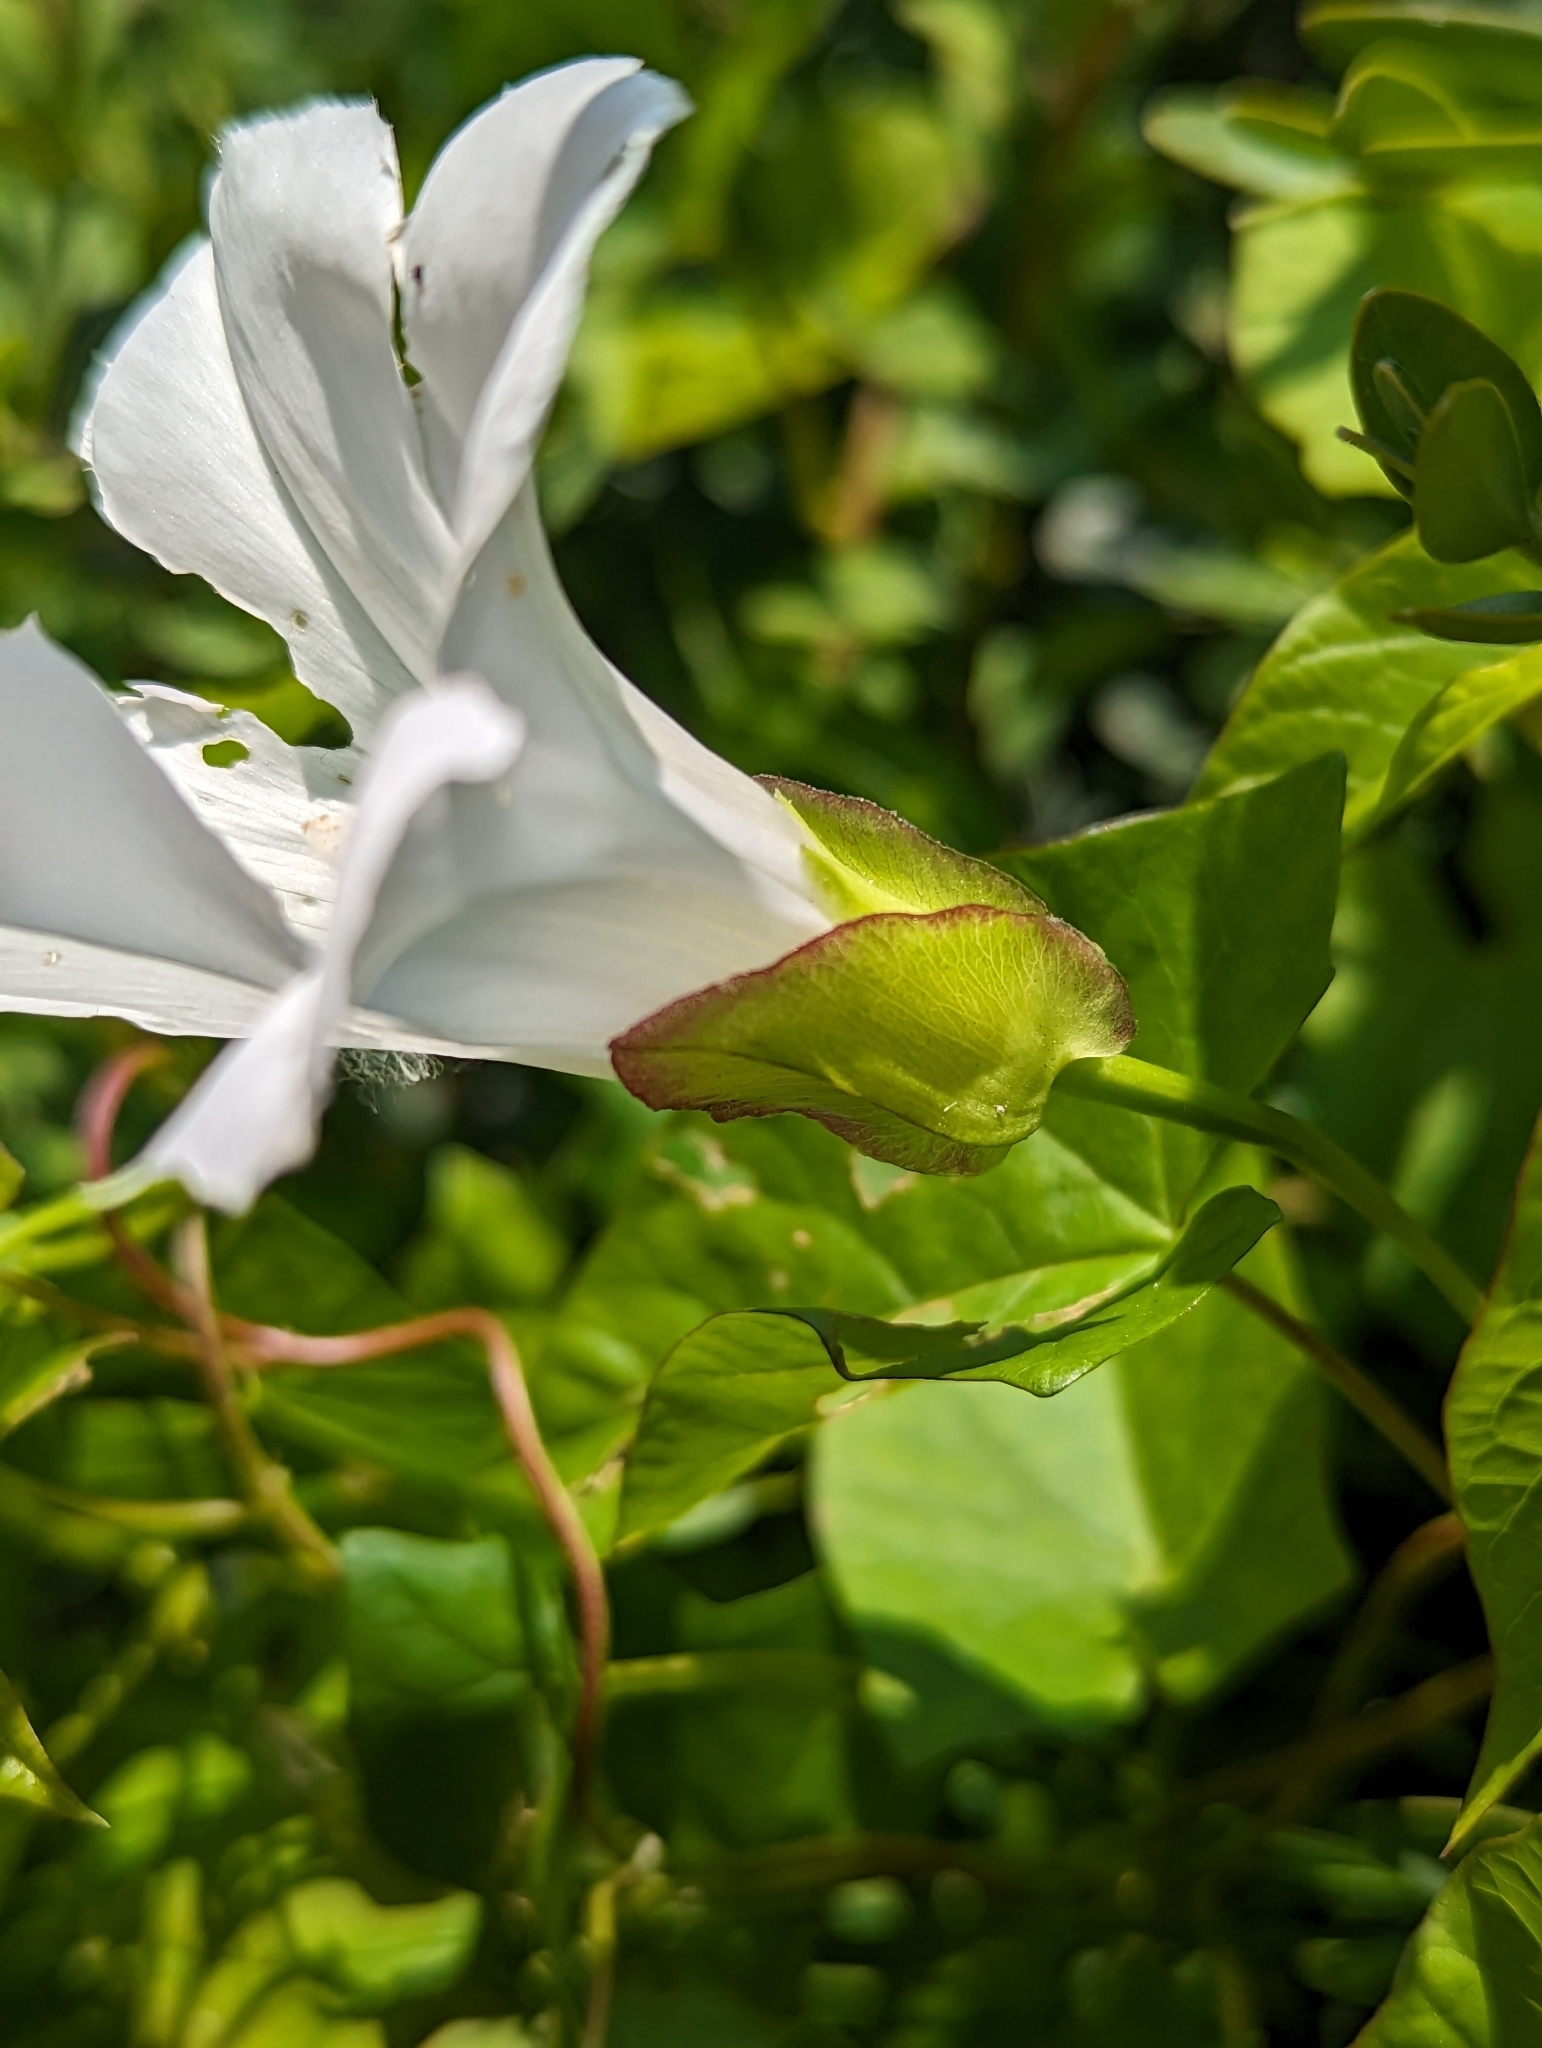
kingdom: Plantae
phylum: Tracheophyta
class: Magnoliopsida
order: Solanales
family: Convolvulaceae
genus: Calystegia
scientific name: Calystegia sepium
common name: Hedge bindweed
